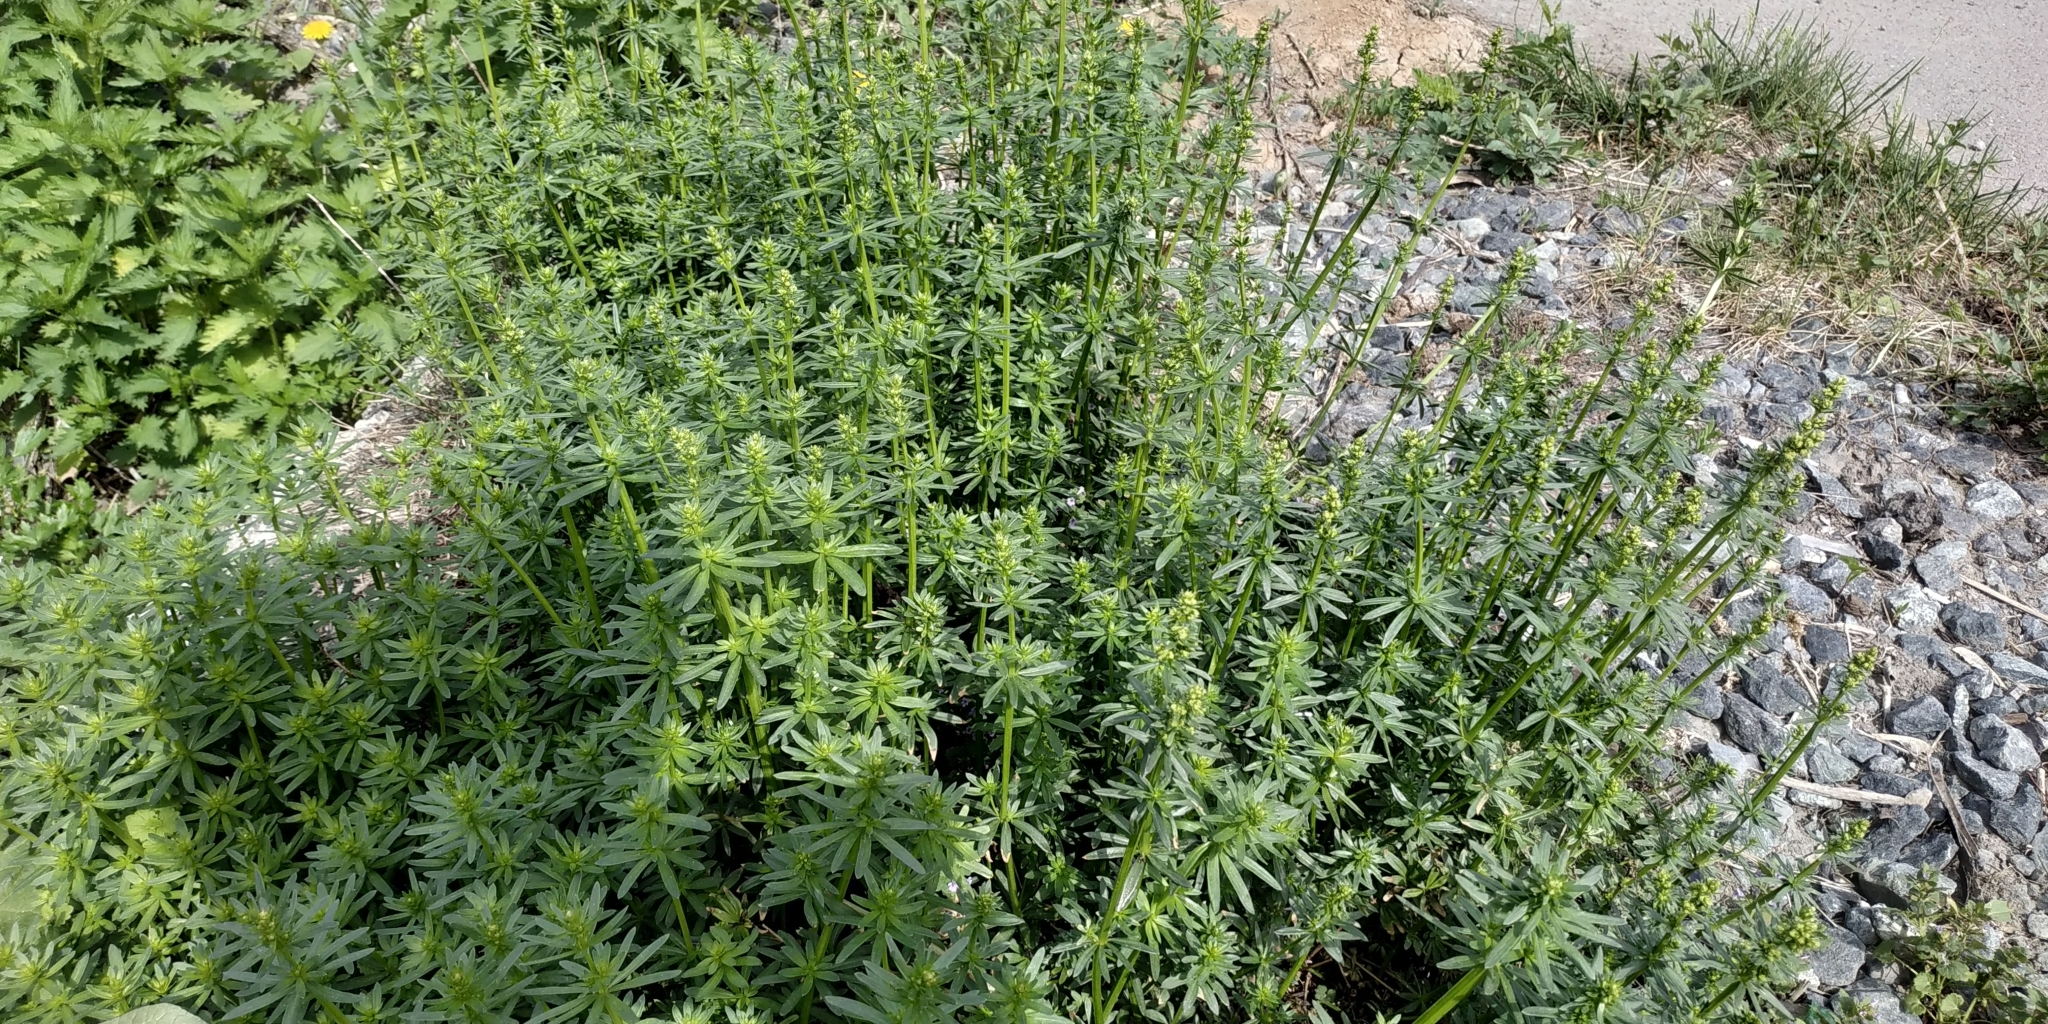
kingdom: Plantae
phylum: Tracheophyta
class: Magnoliopsida
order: Gentianales
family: Rubiaceae
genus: Galium
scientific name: Galium mollugo
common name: Hedge bedstraw
